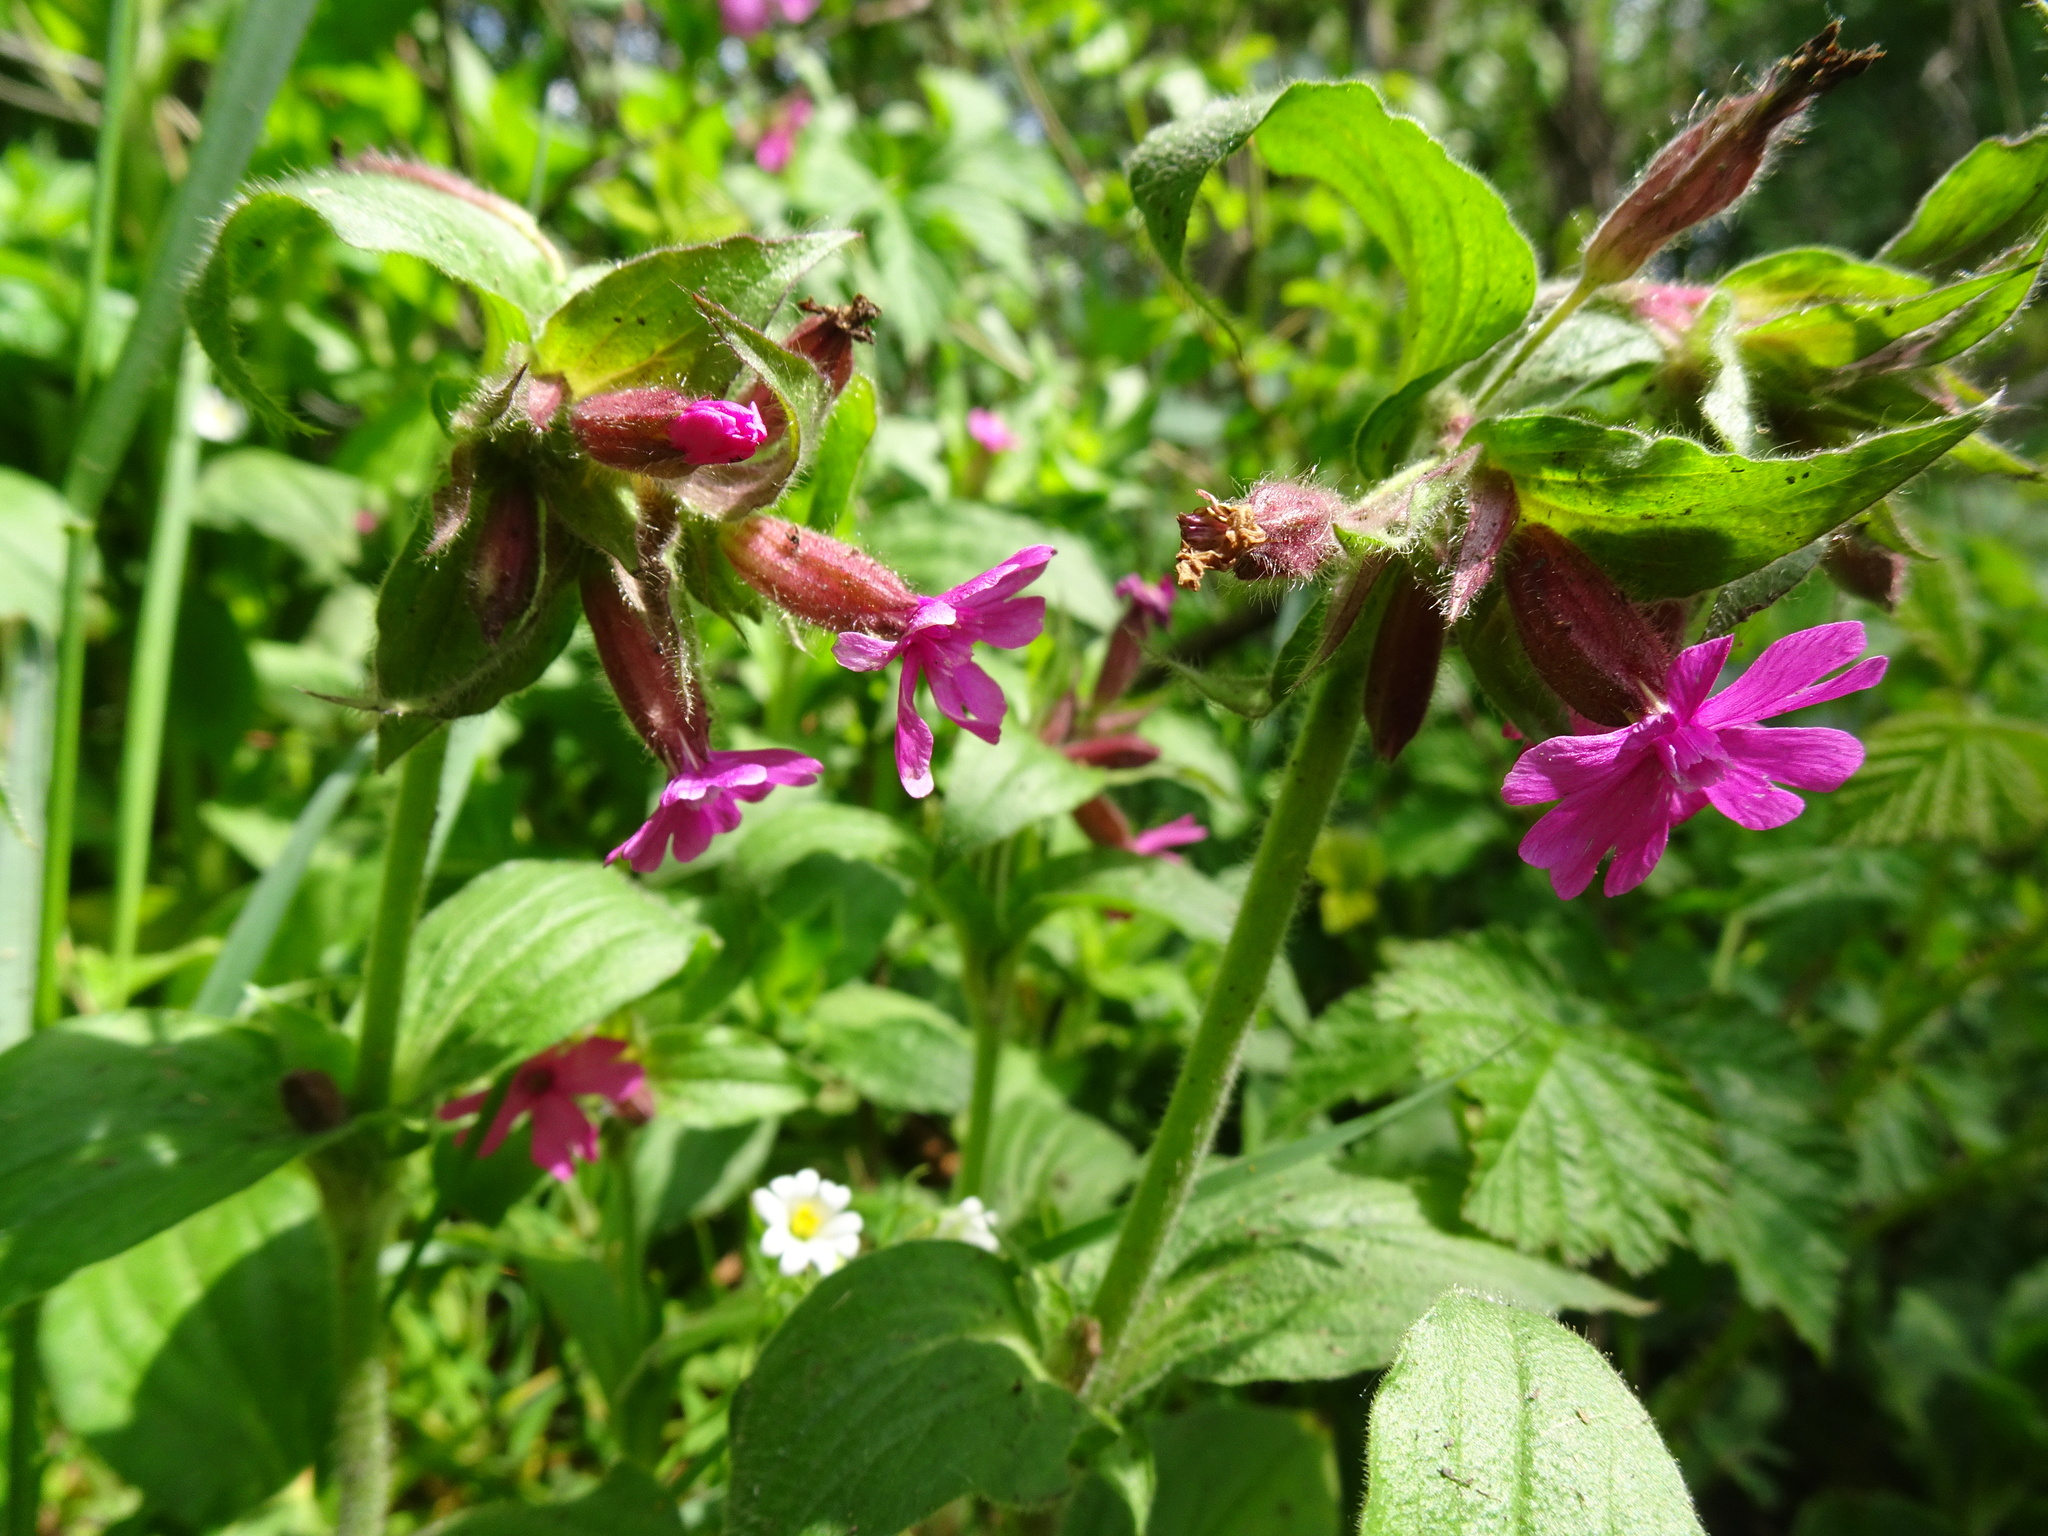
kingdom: Plantae
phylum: Tracheophyta
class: Magnoliopsida
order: Caryophyllales
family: Caryophyllaceae
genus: Silene
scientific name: Silene dioica
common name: Red campion
